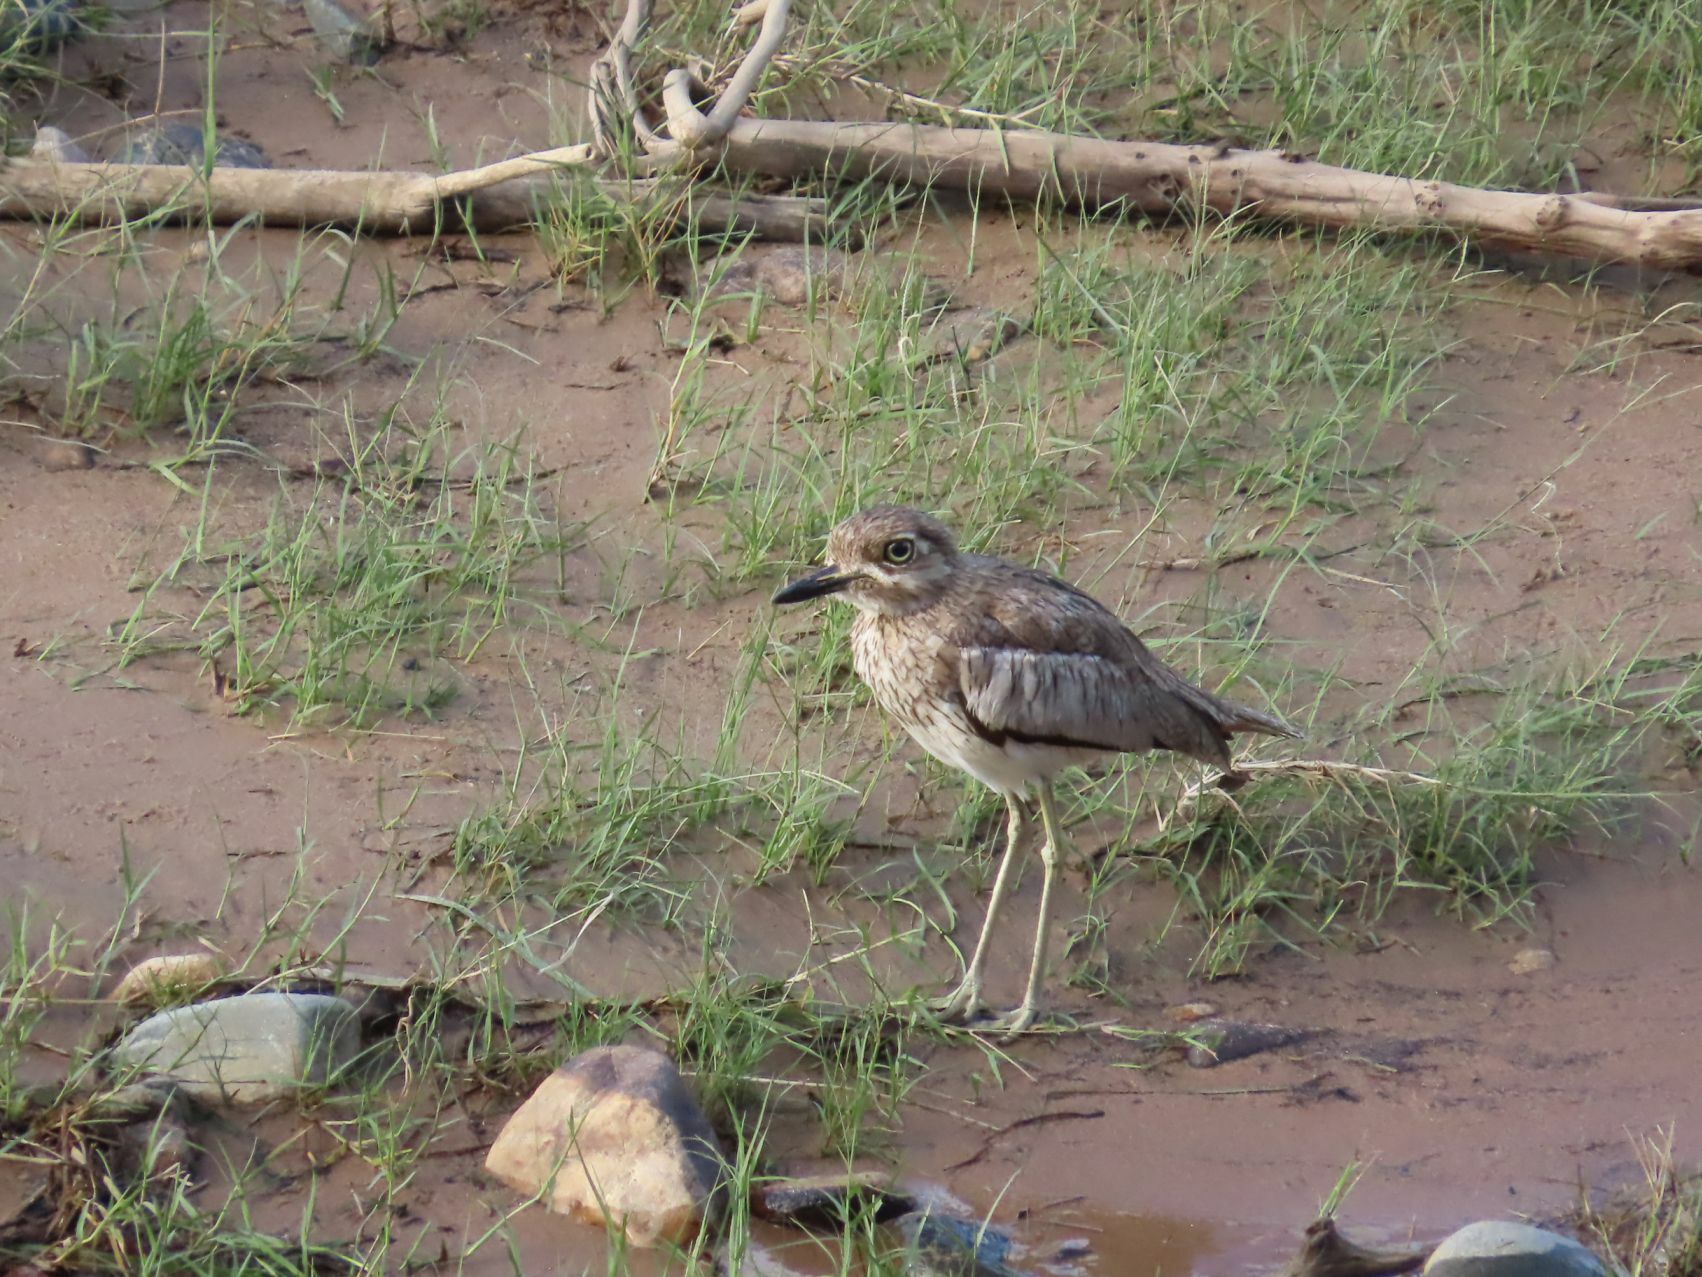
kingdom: Animalia
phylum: Chordata
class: Aves
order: Charadriiformes
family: Burhinidae
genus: Burhinus
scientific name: Burhinus vermiculatus
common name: Water thick-knee
